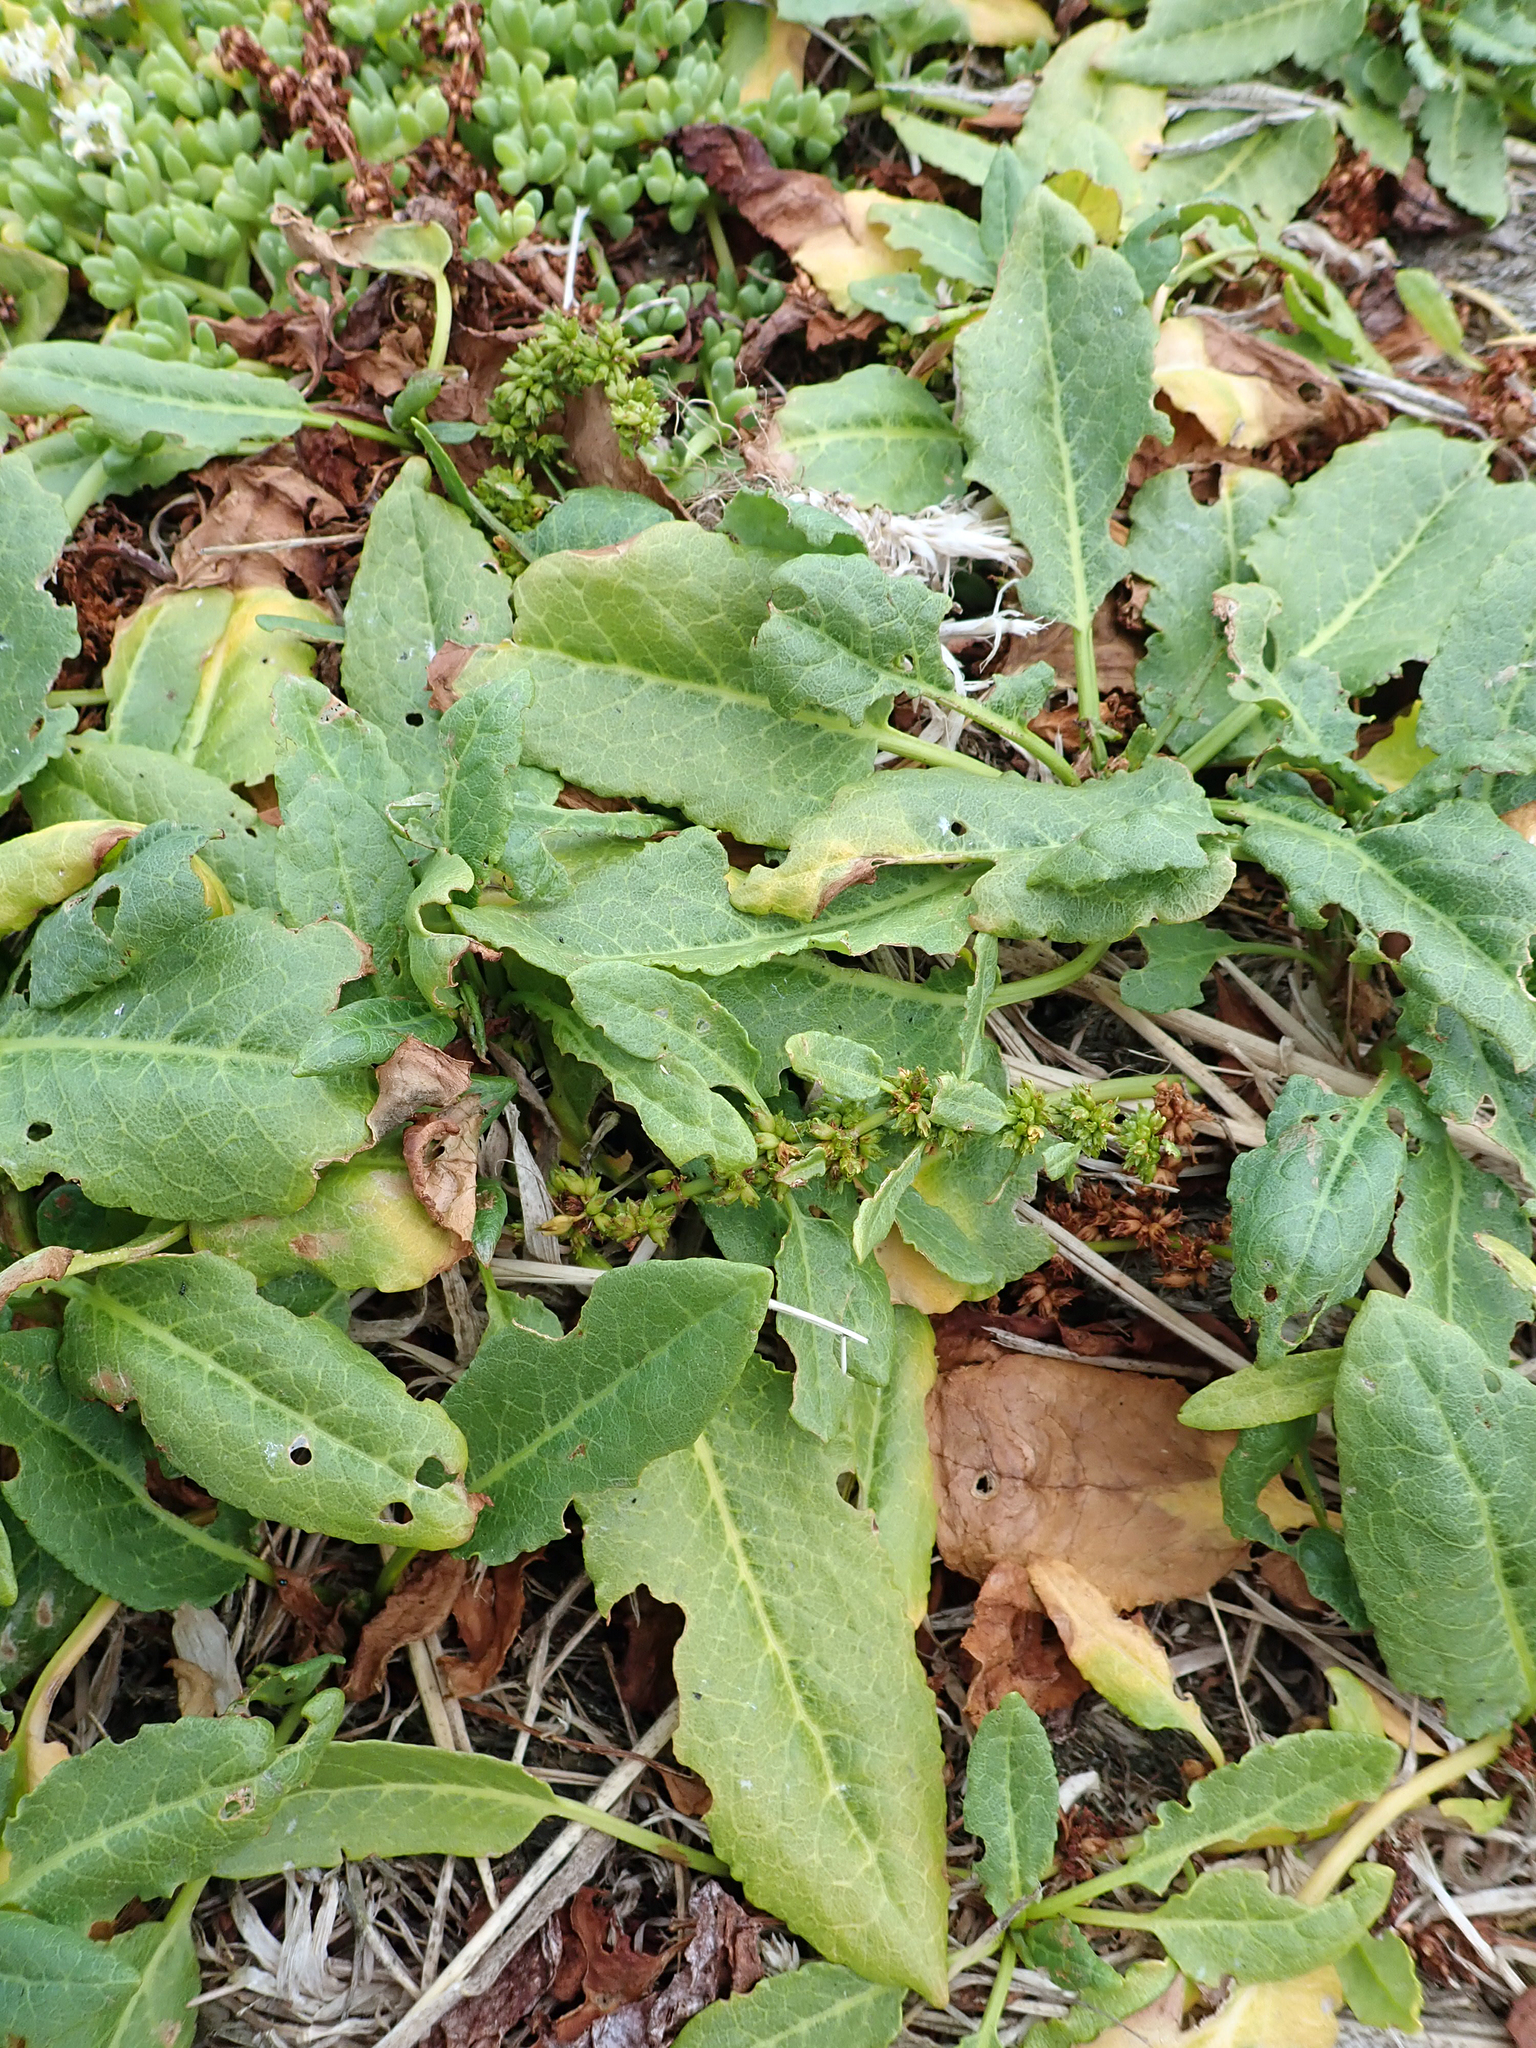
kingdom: Plantae
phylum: Tracheophyta
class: Magnoliopsida
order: Caryophyllales
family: Polygonaceae
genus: Rumex
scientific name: Rumex neglectus
